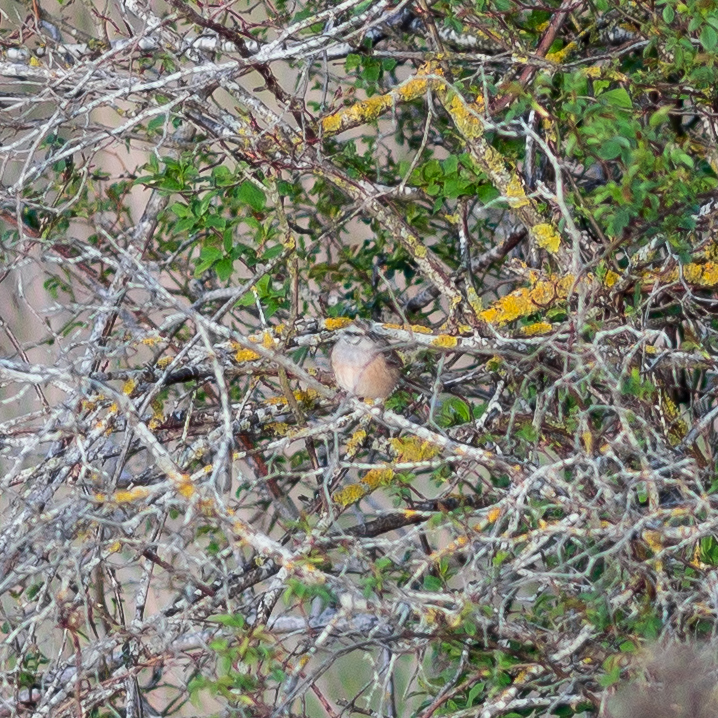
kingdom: Animalia
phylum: Chordata
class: Aves
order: Passeriformes
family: Emberizidae
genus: Emberiza
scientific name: Emberiza cia
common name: Rock bunting
